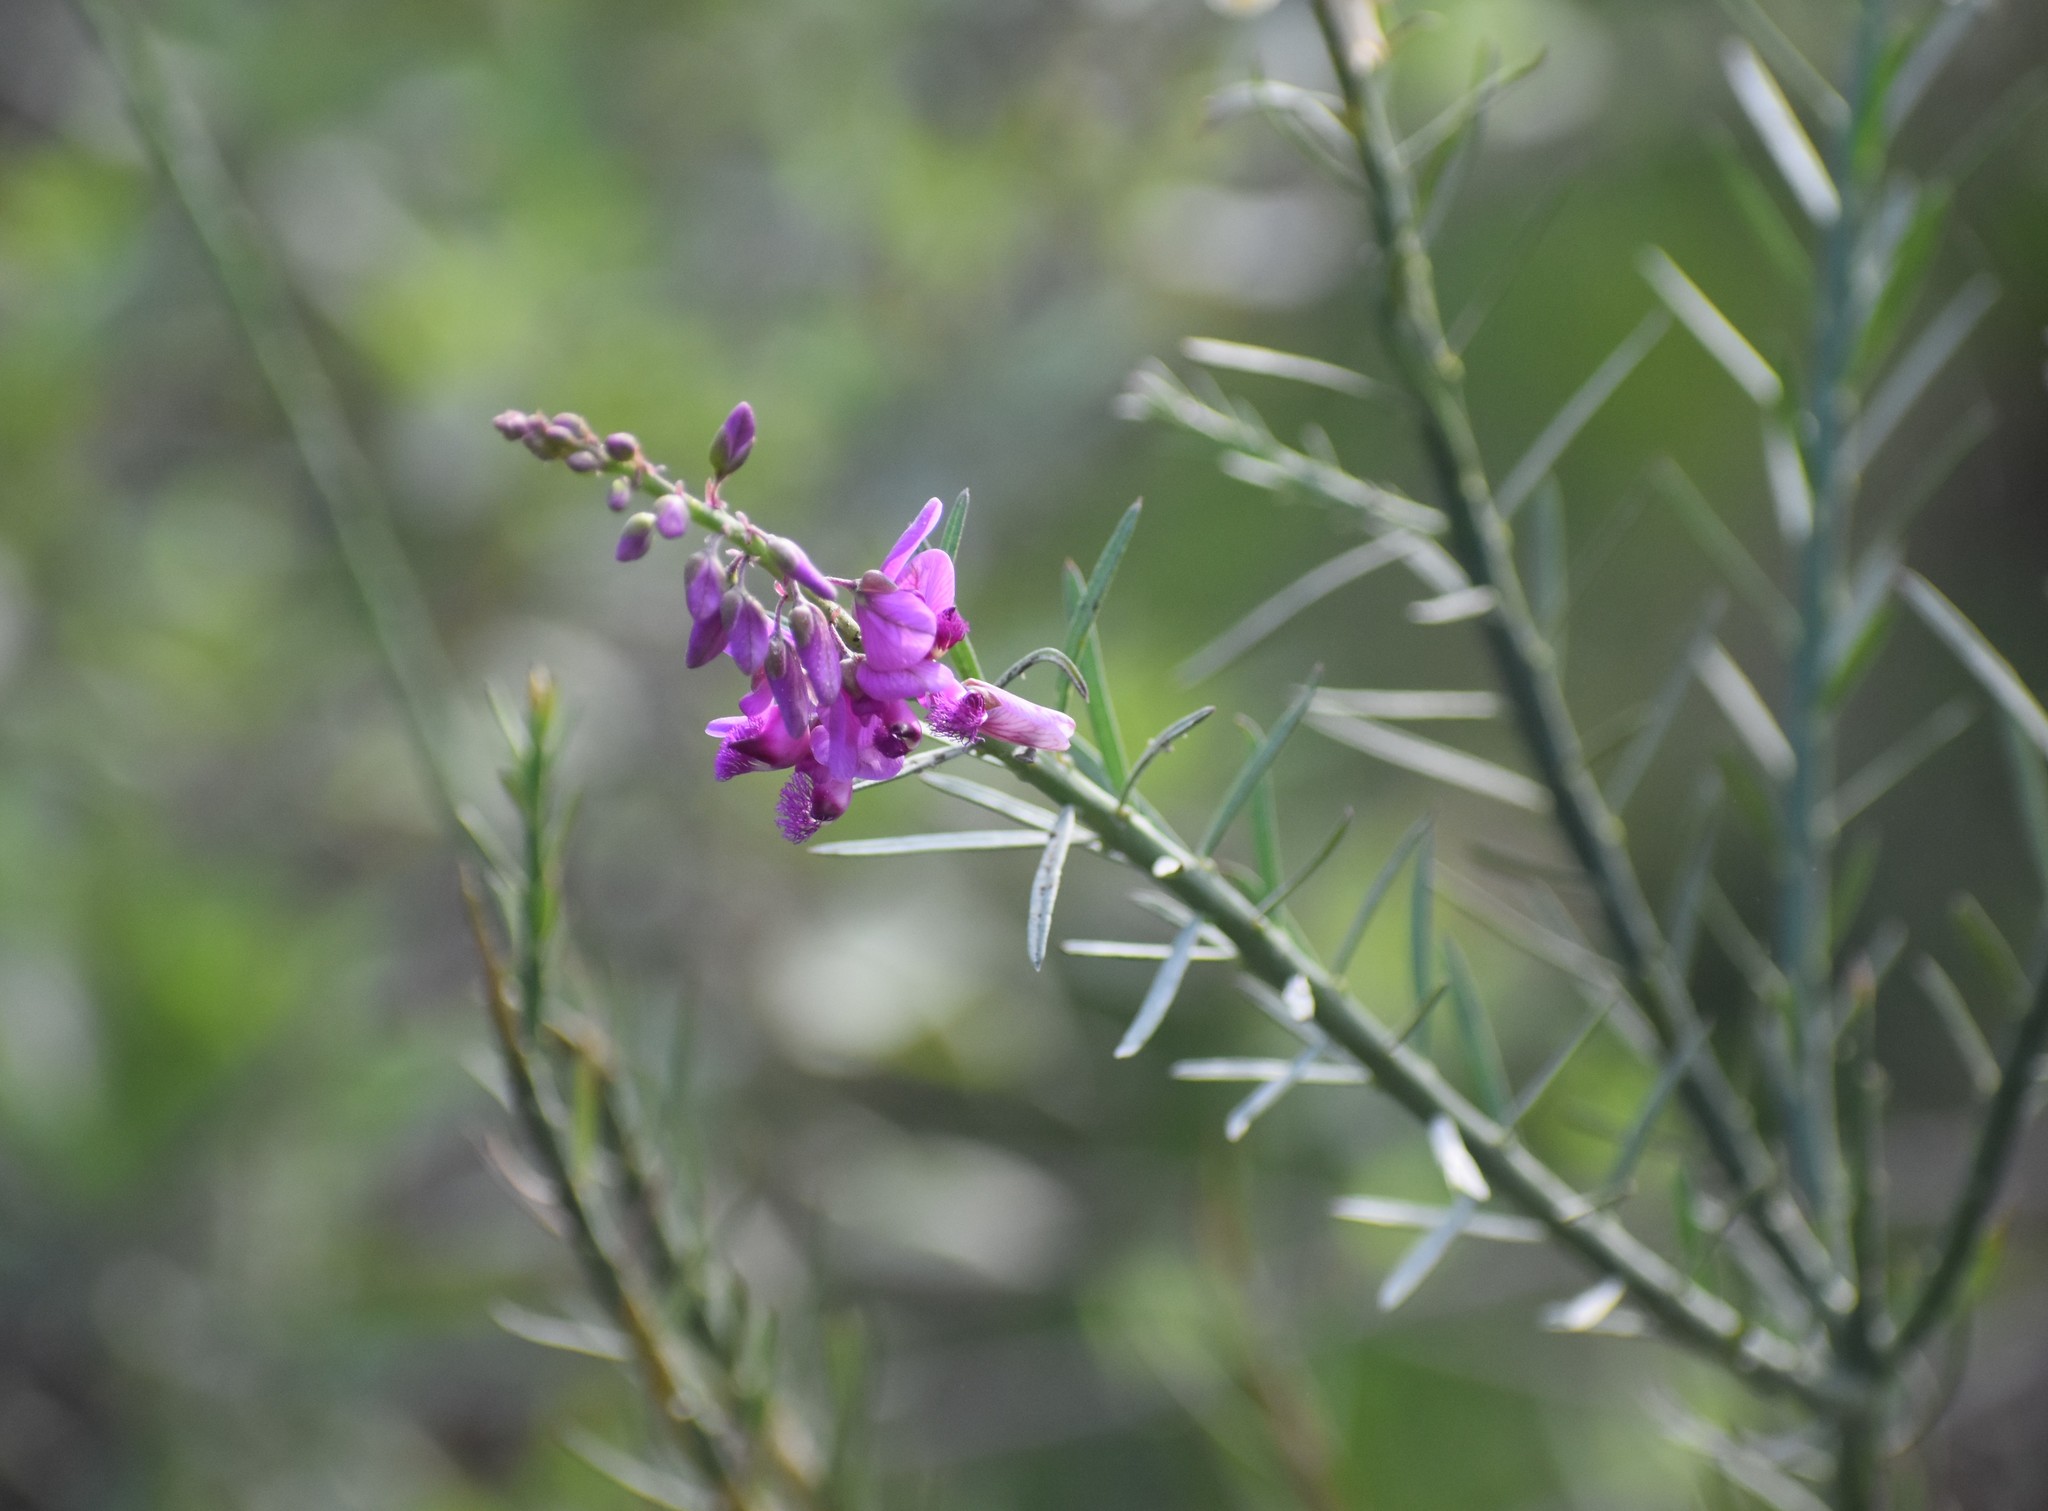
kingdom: Plantae
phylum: Tracheophyta
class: Magnoliopsida
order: Fabales
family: Polygalaceae
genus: Polygala
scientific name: Polygala virgata
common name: Milkwort
